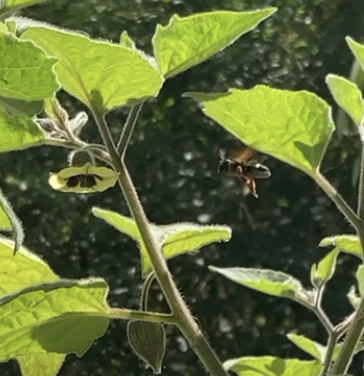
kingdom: Animalia
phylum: Arthropoda
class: Insecta
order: Hymenoptera
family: Megachilidae
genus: Megachile
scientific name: Megachile euzona
